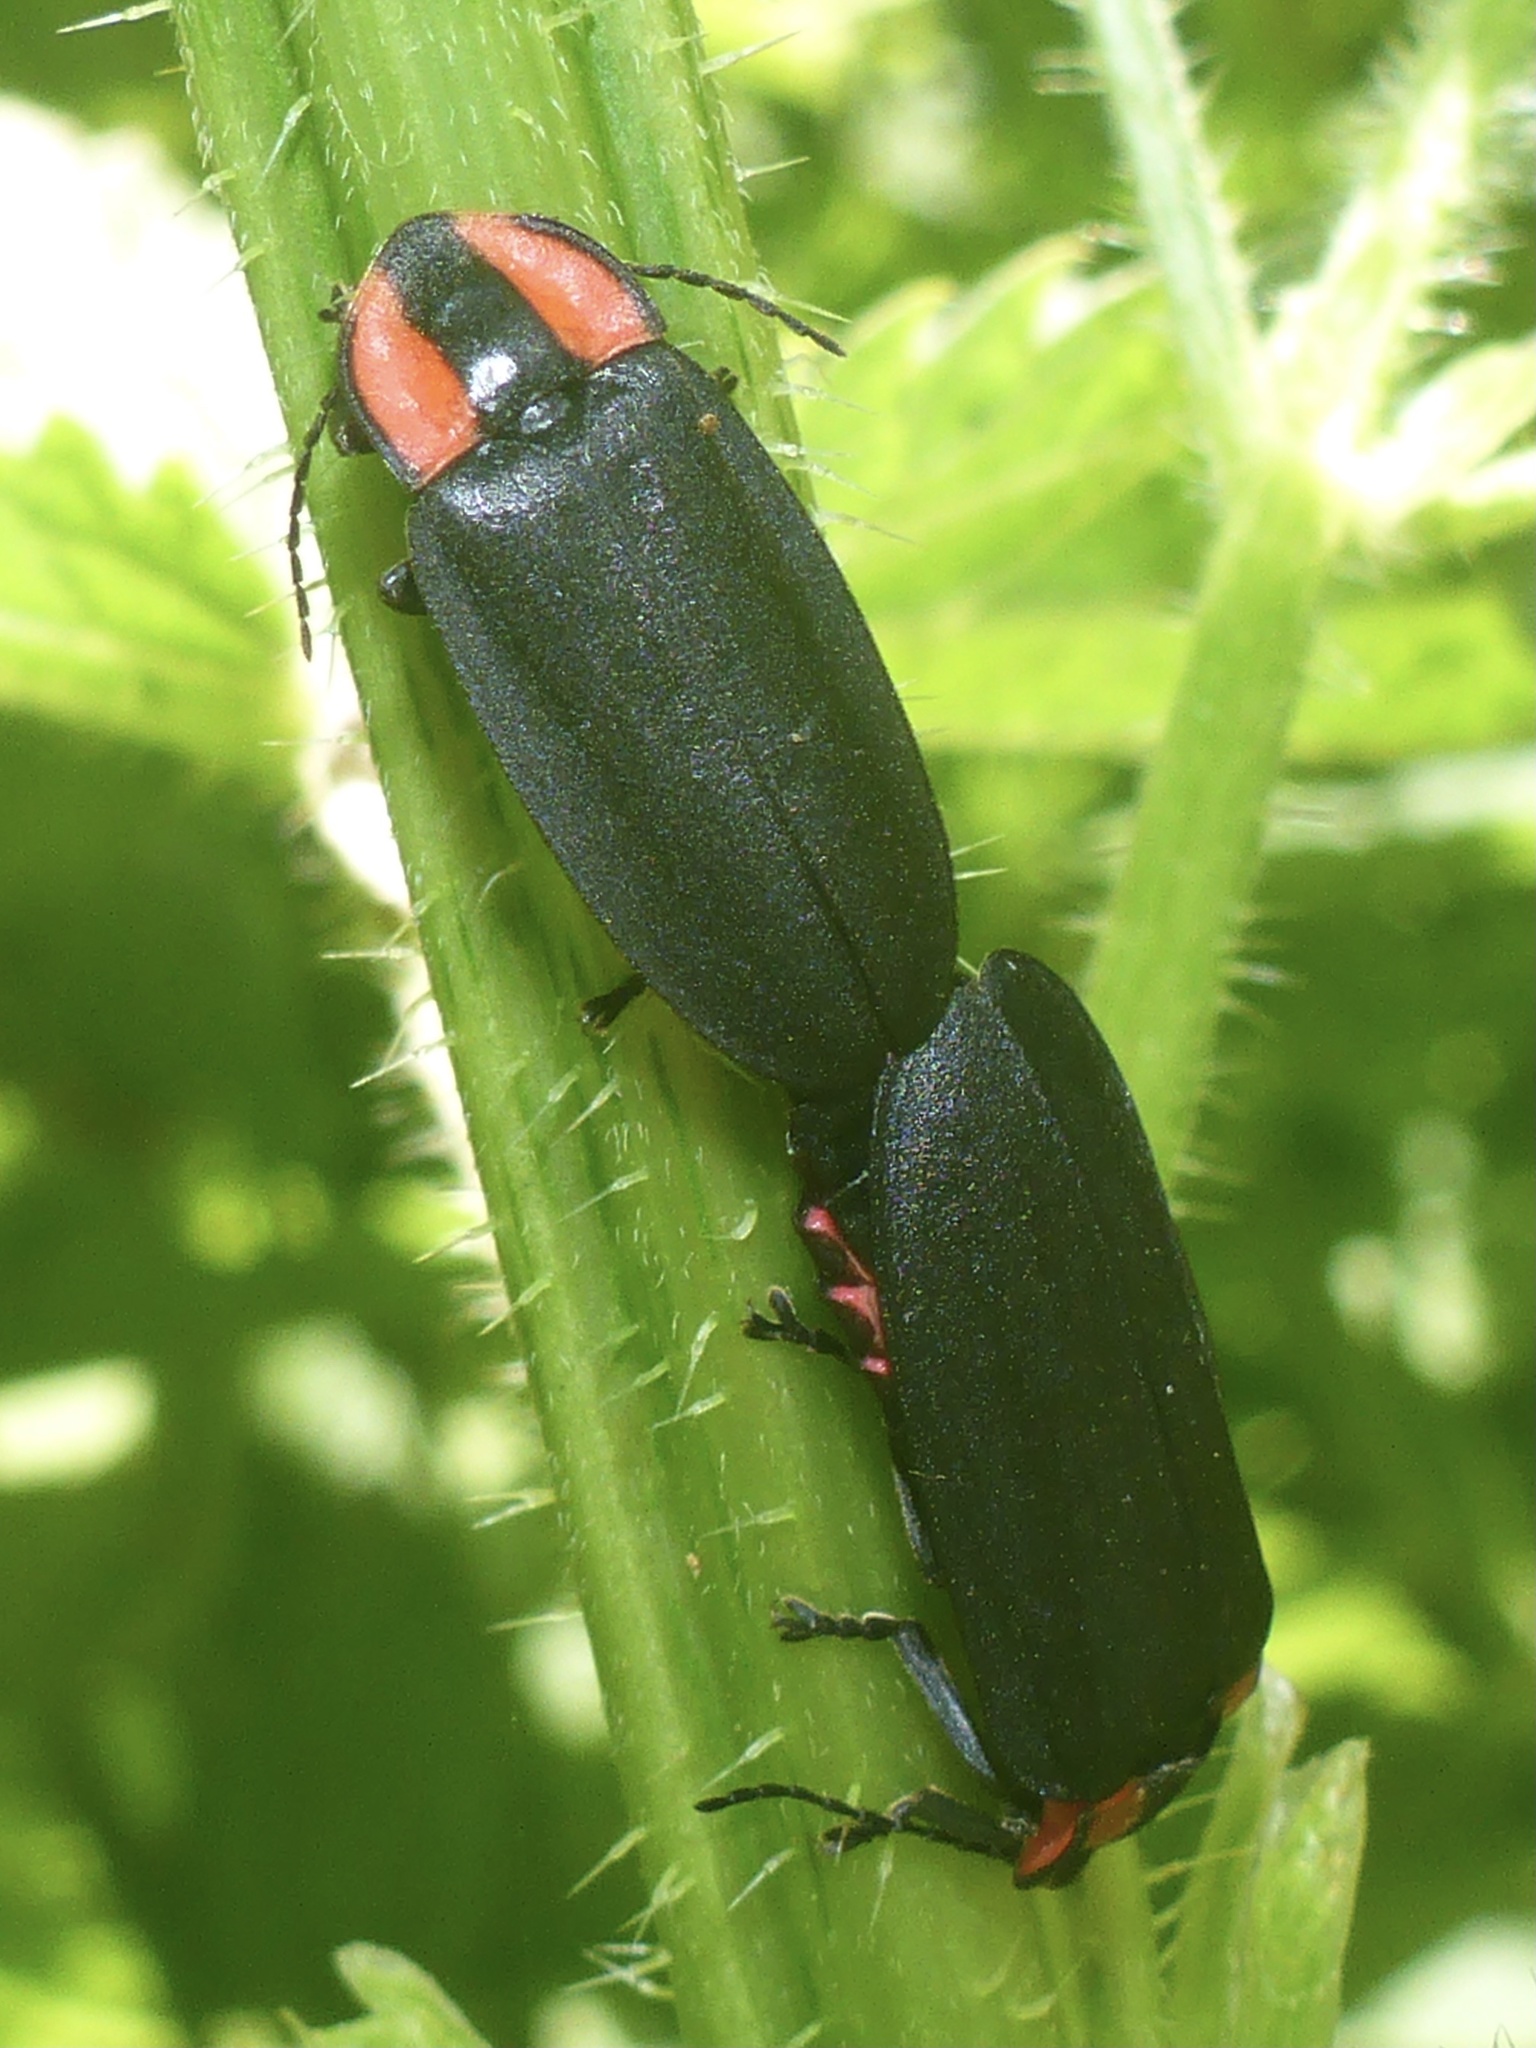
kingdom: Animalia
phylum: Arthropoda
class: Insecta
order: Coleoptera
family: Lampyridae
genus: Ellychnia
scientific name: Ellychnia megista
